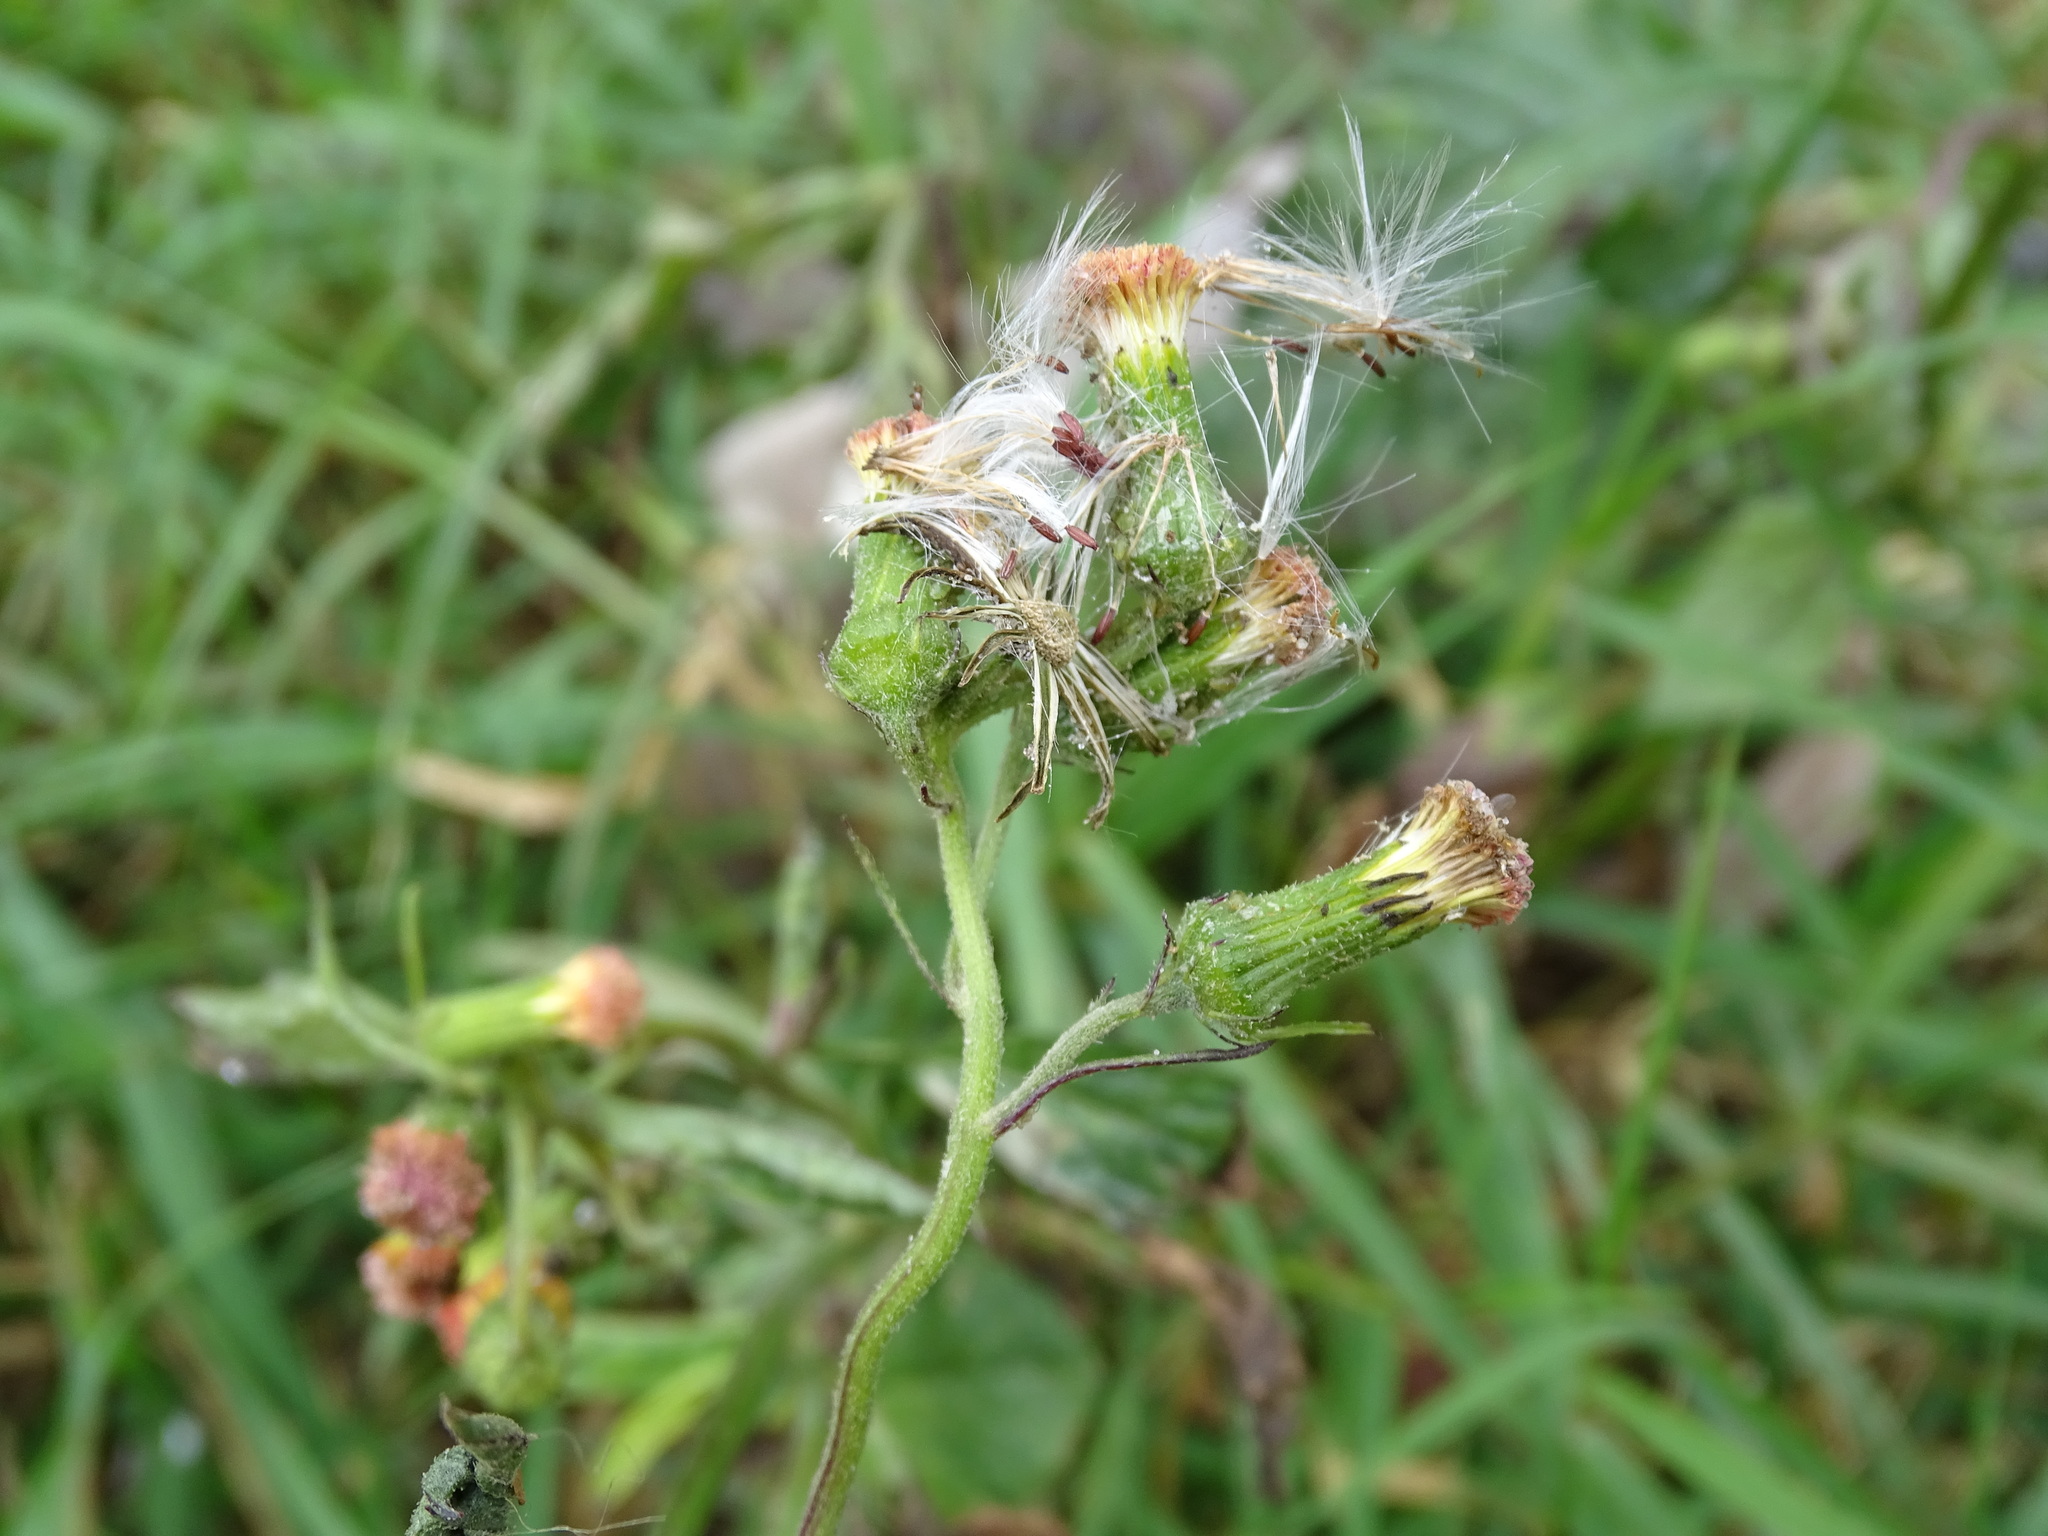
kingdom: Plantae
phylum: Tracheophyta
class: Magnoliopsida
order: Asterales
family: Asteraceae
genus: Crassocephalum
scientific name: Crassocephalum crepidioides
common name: Redflower ragleaf
